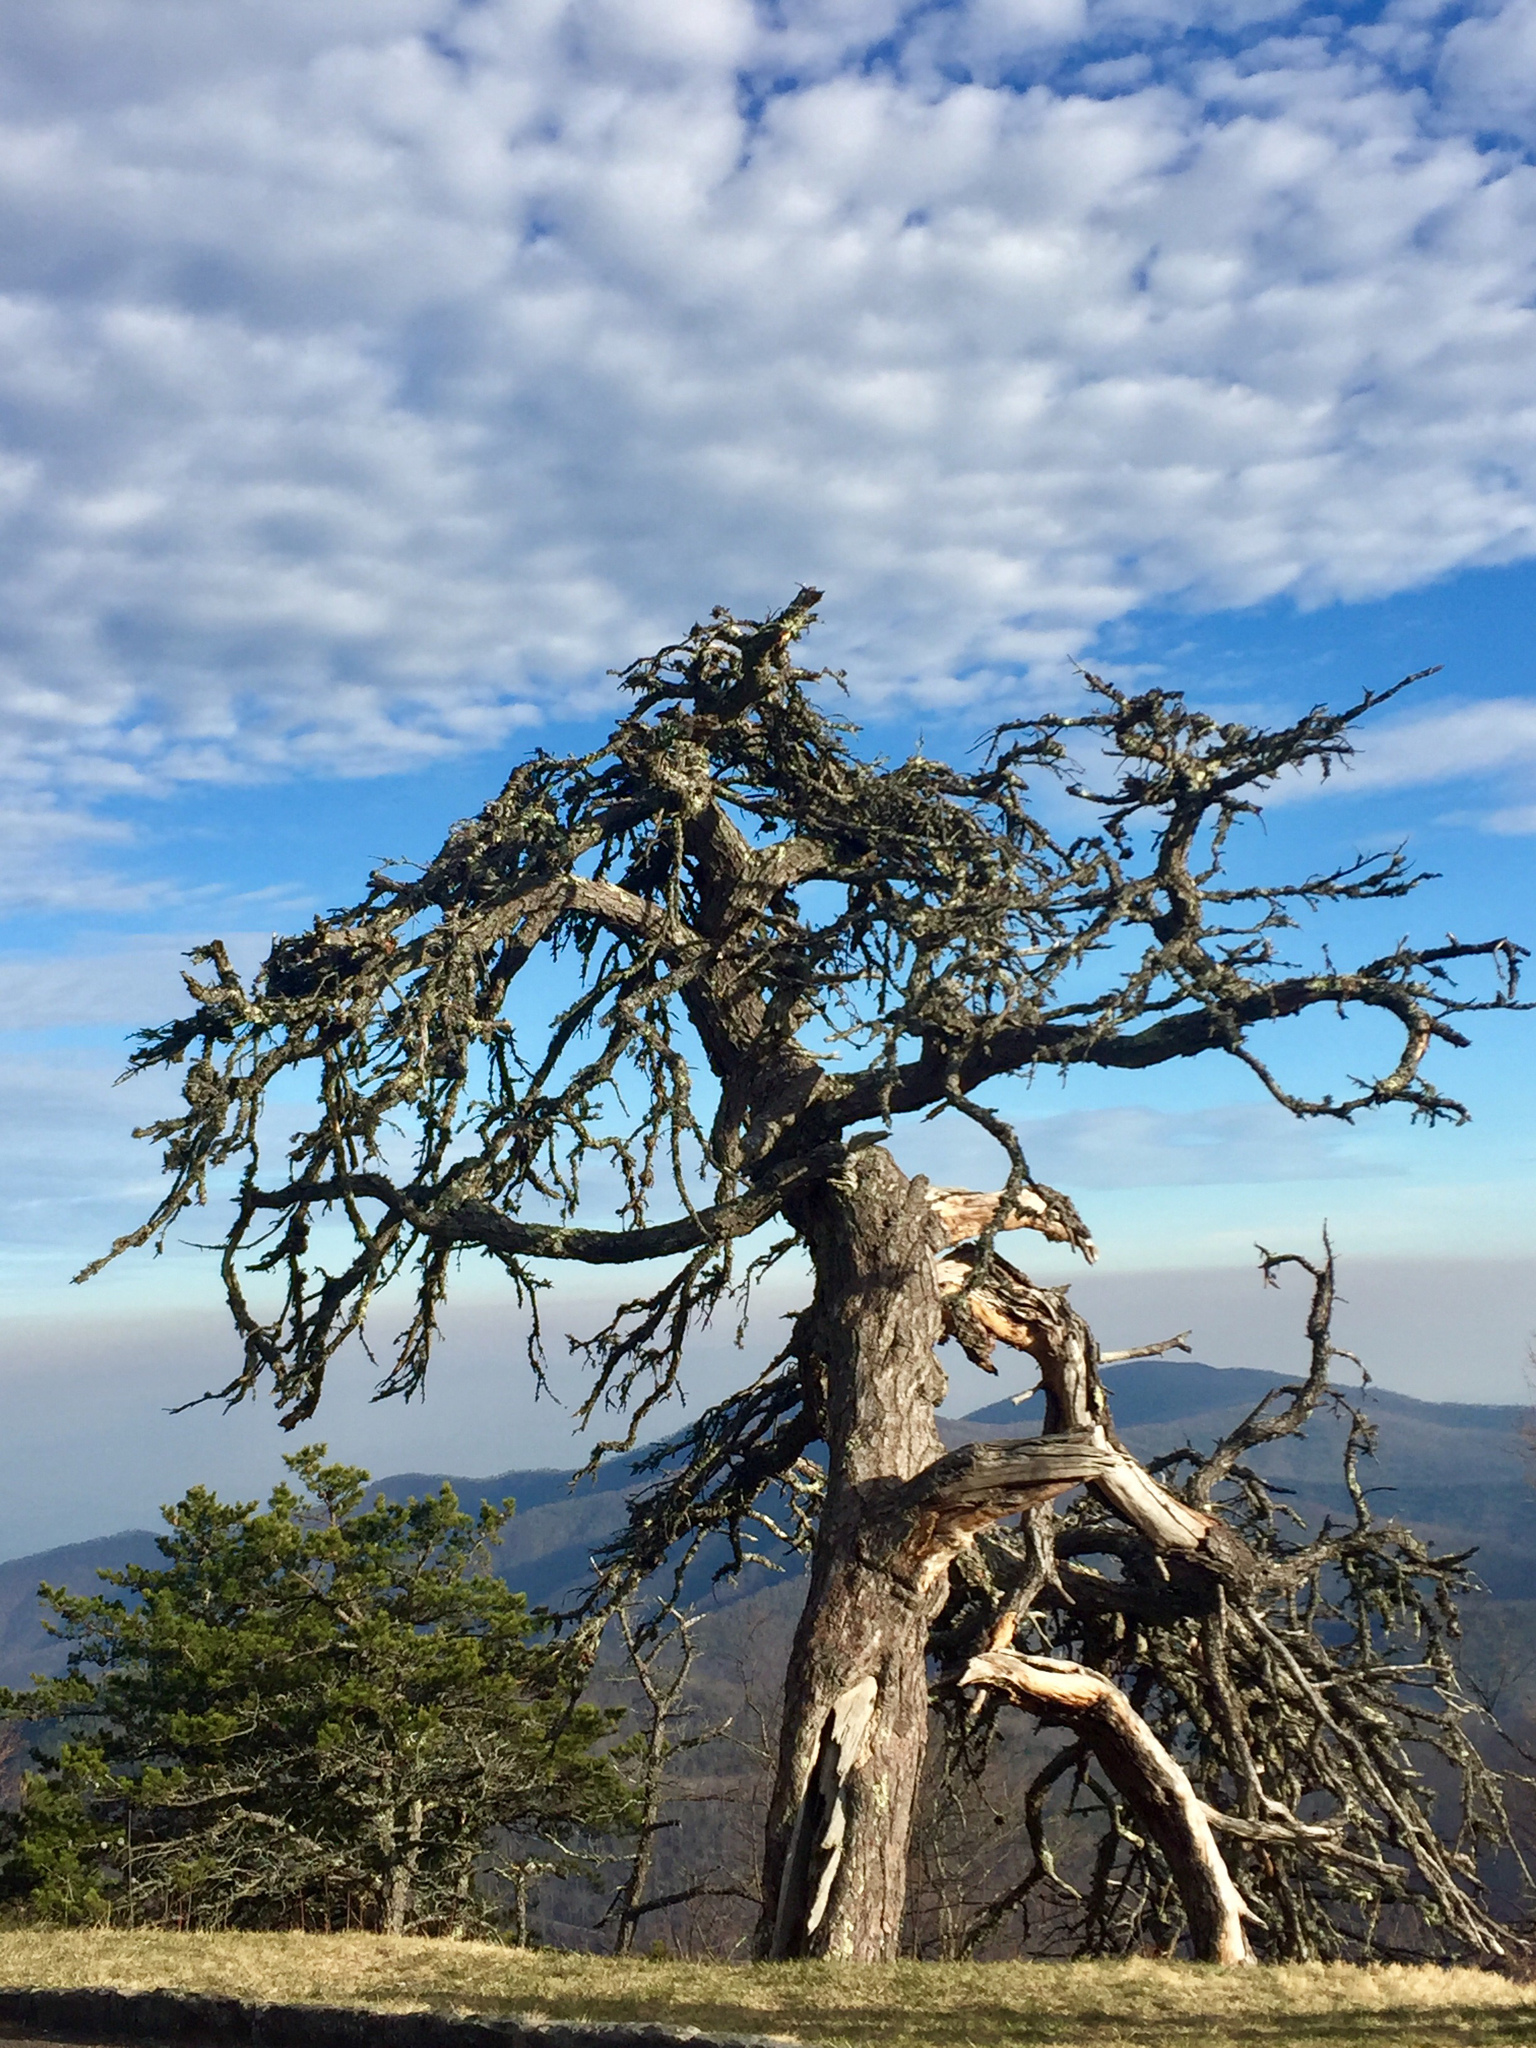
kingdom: Plantae
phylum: Tracheophyta
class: Pinopsida
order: Pinales
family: Pinaceae
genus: Pinus
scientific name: Pinus pungens
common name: Hickory pine
